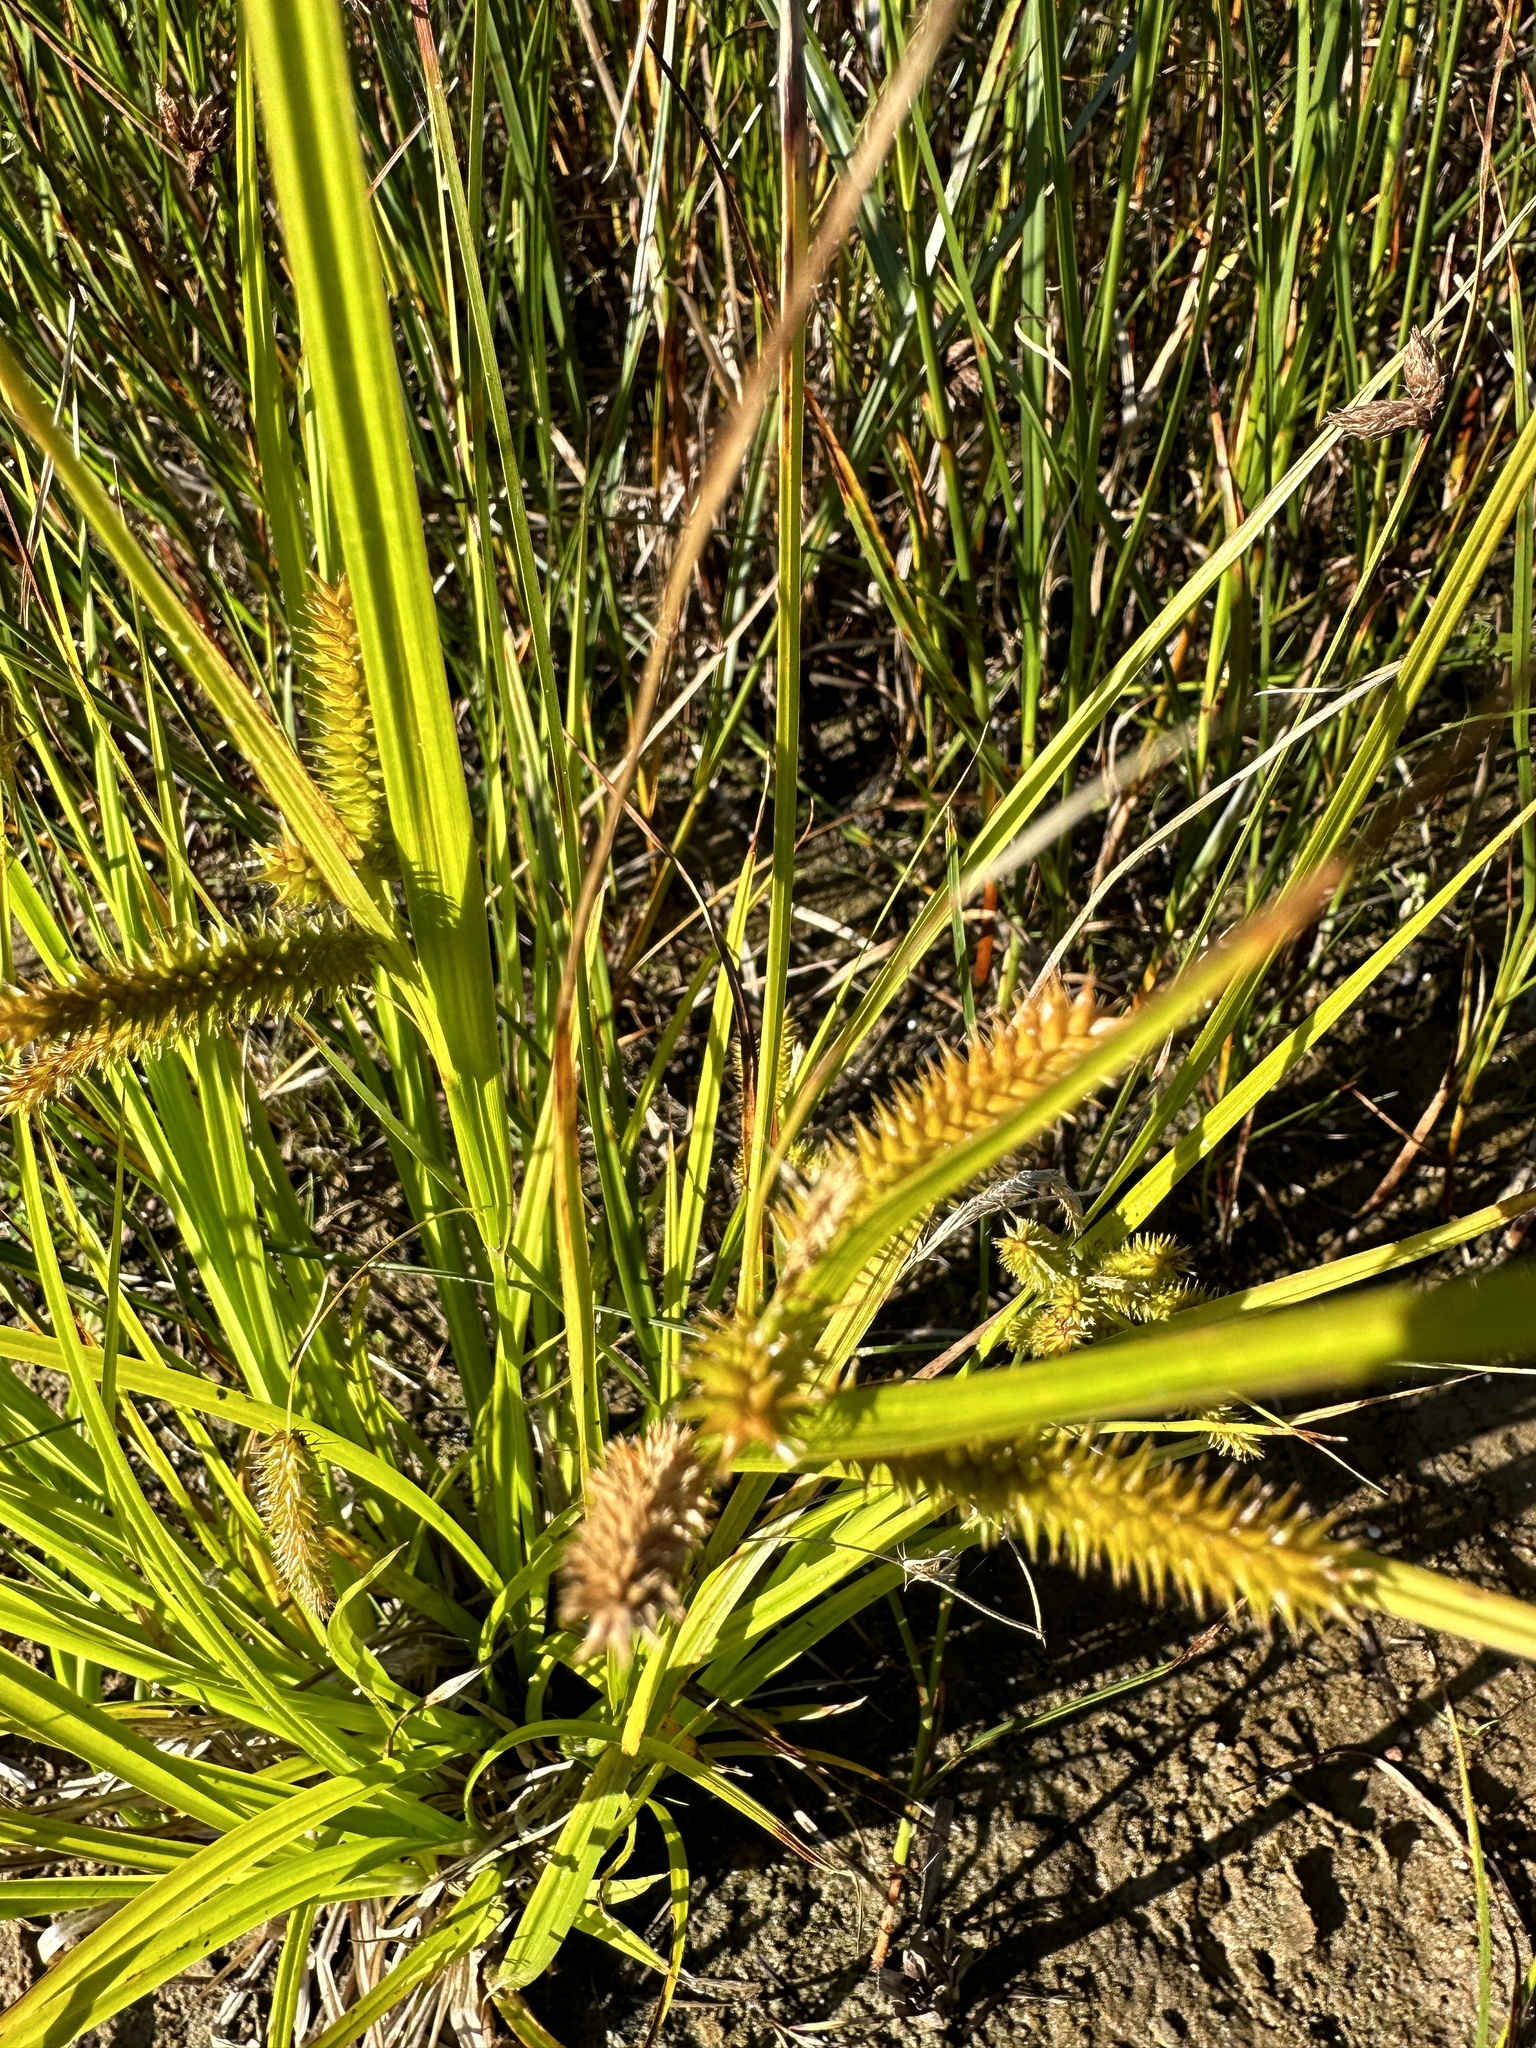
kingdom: Plantae
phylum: Tracheophyta
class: Liliopsida
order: Poales
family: Cyperaceae
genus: Carex
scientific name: Carex pseudocyperus
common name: Cyperus sedge
